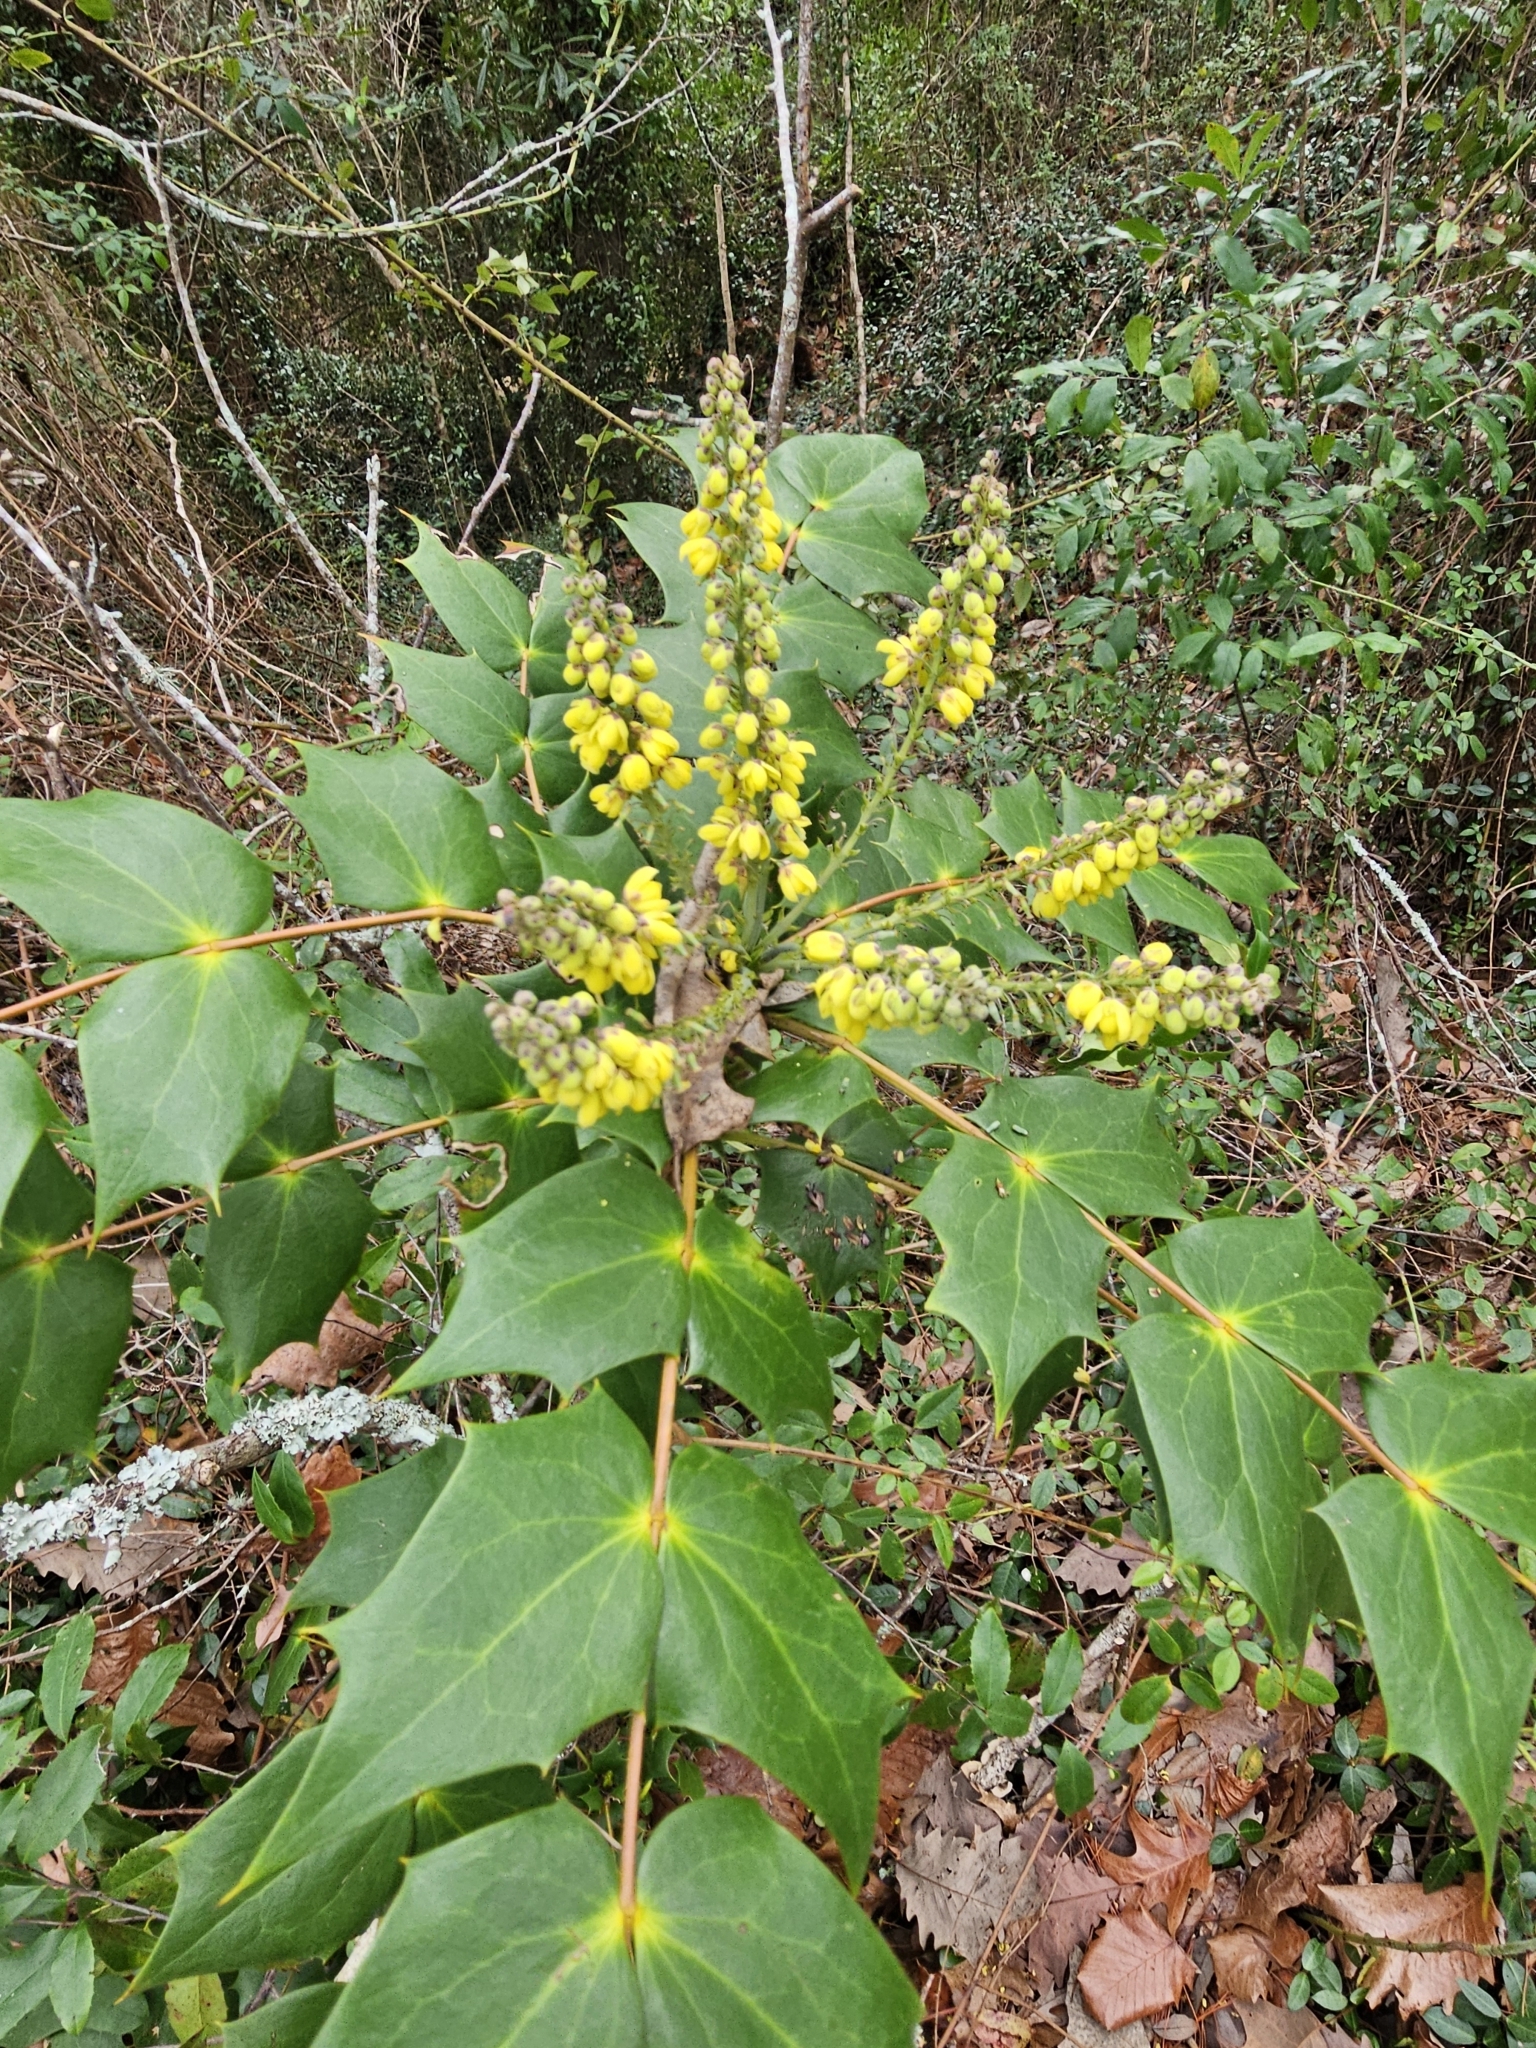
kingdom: Plantae
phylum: Tracheophyta
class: Magnoliopsida
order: Ranunculales
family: Berberidaceae
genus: Mahonia
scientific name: Mahonia bealei
